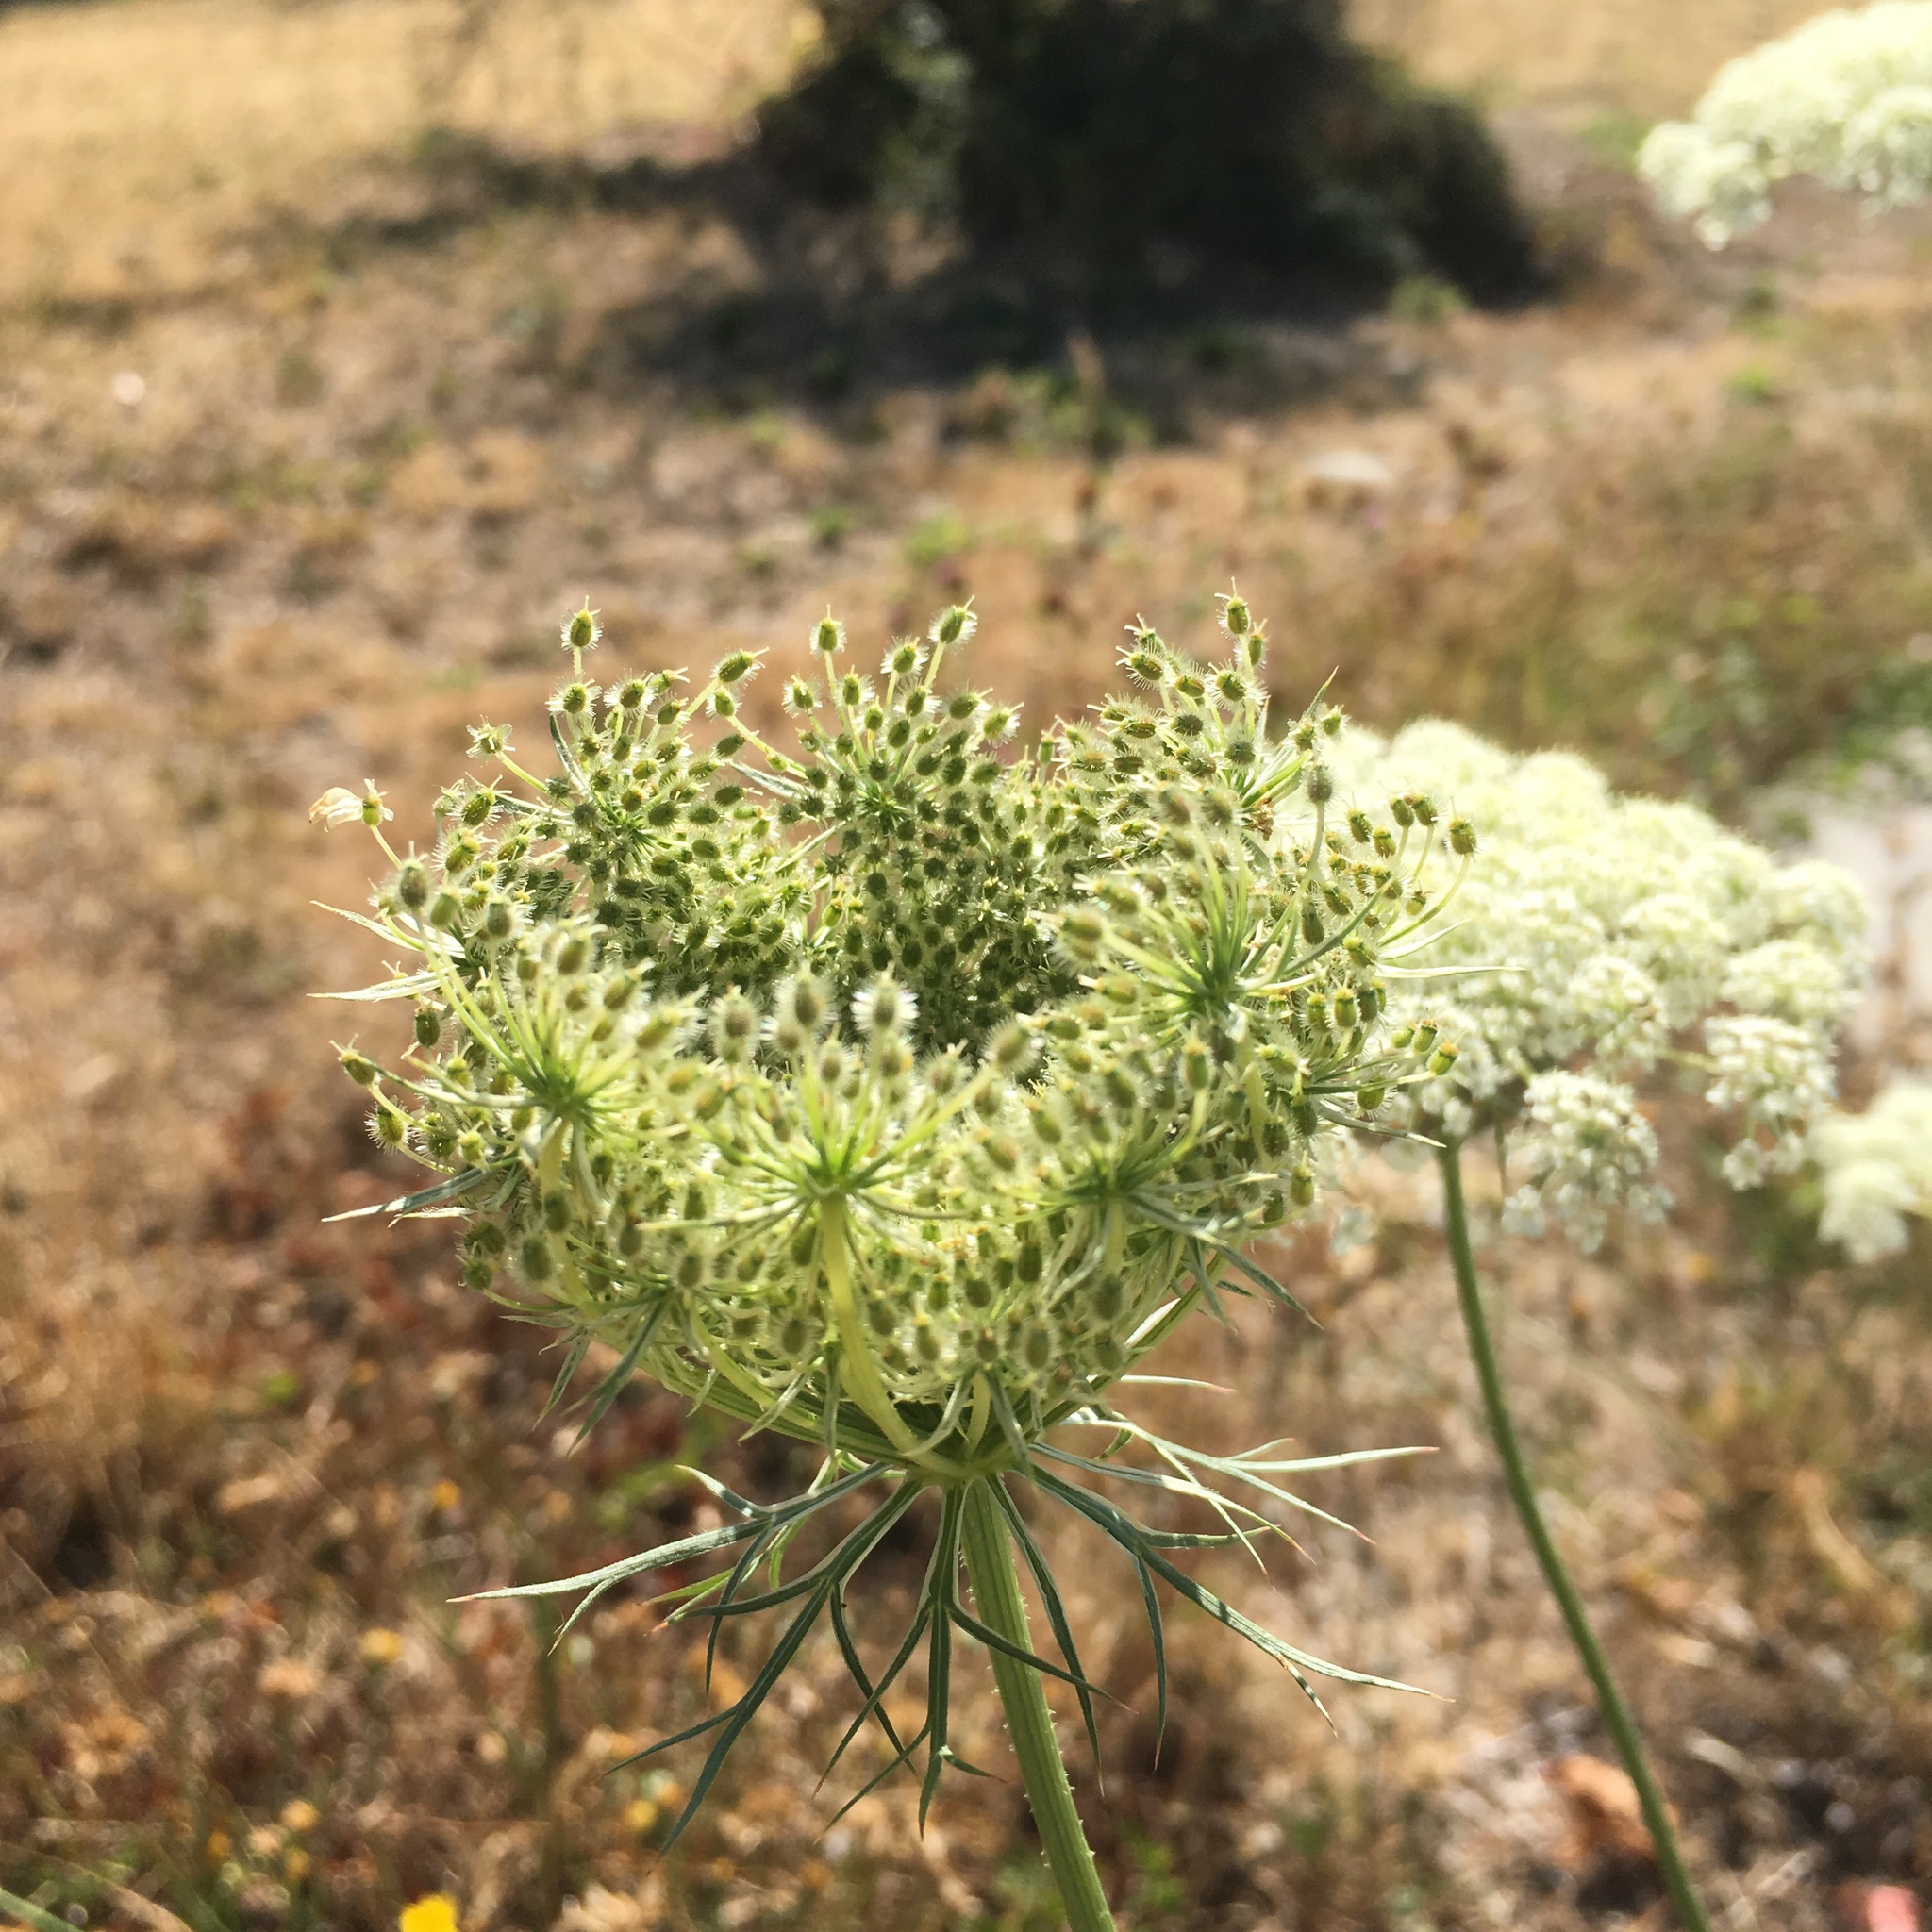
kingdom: Plantae
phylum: Tracheophyta
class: Magnoliopsida
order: Apiales
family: Apiaceae
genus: Daucus
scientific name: Daucus carota
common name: Wild carrot
